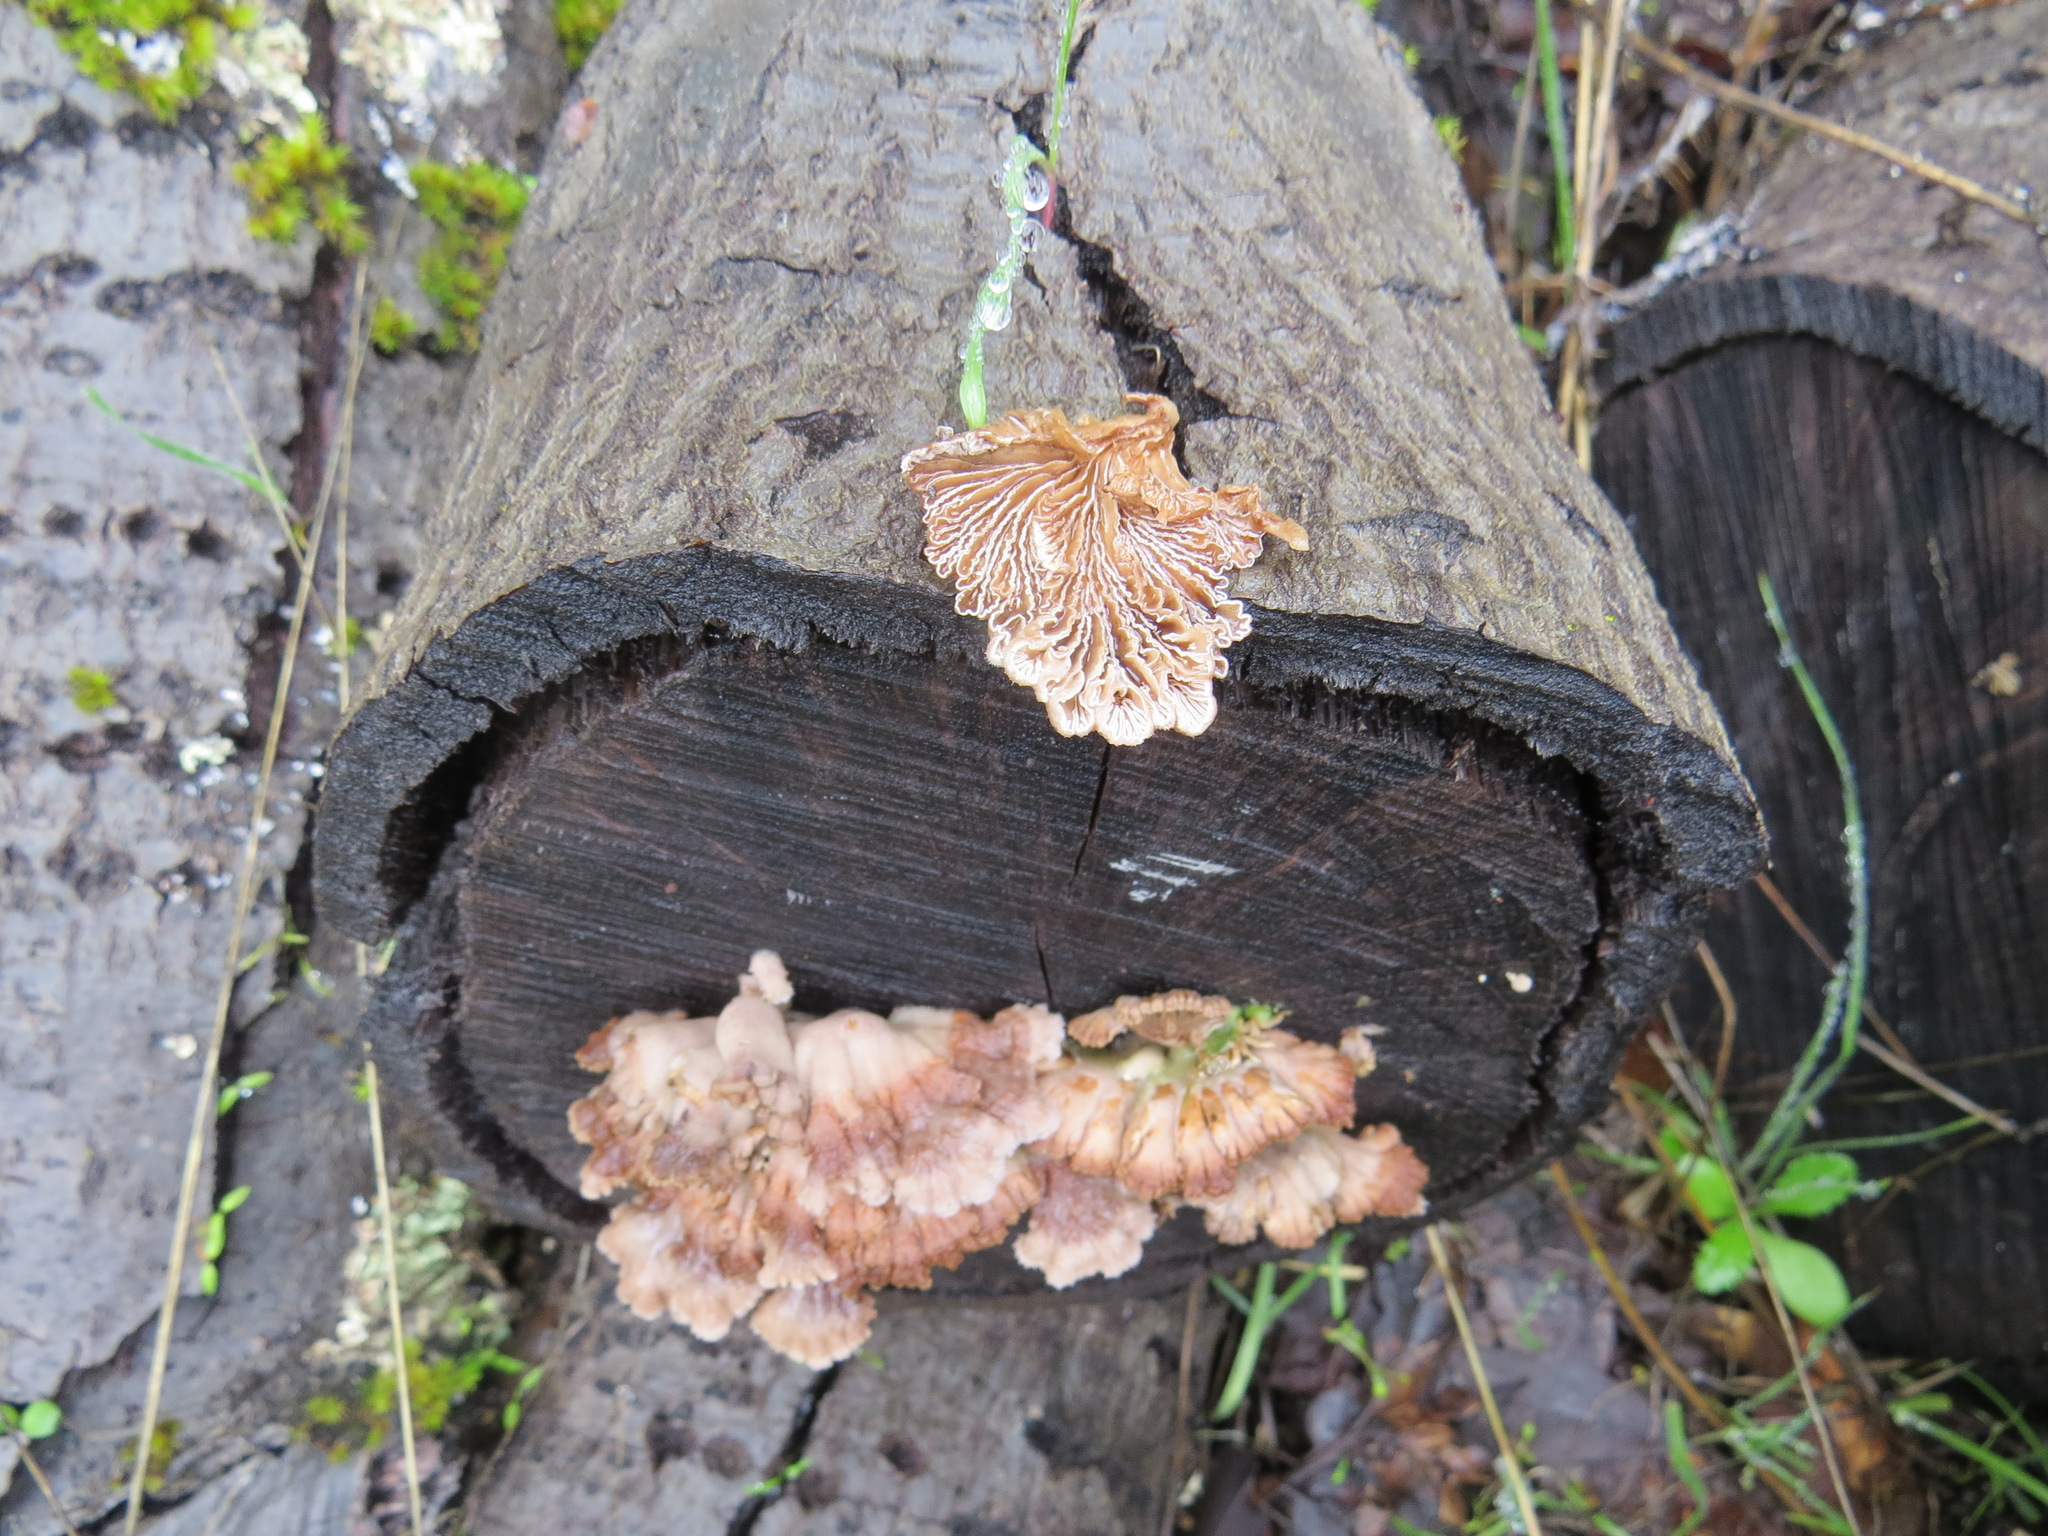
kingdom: Fungi
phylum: Basidiomycota
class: Agaricomycetes
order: Agaricales
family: Schizophyllaceae
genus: Schizophyllum
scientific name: Schizophyllum commune
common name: Common porecrust
